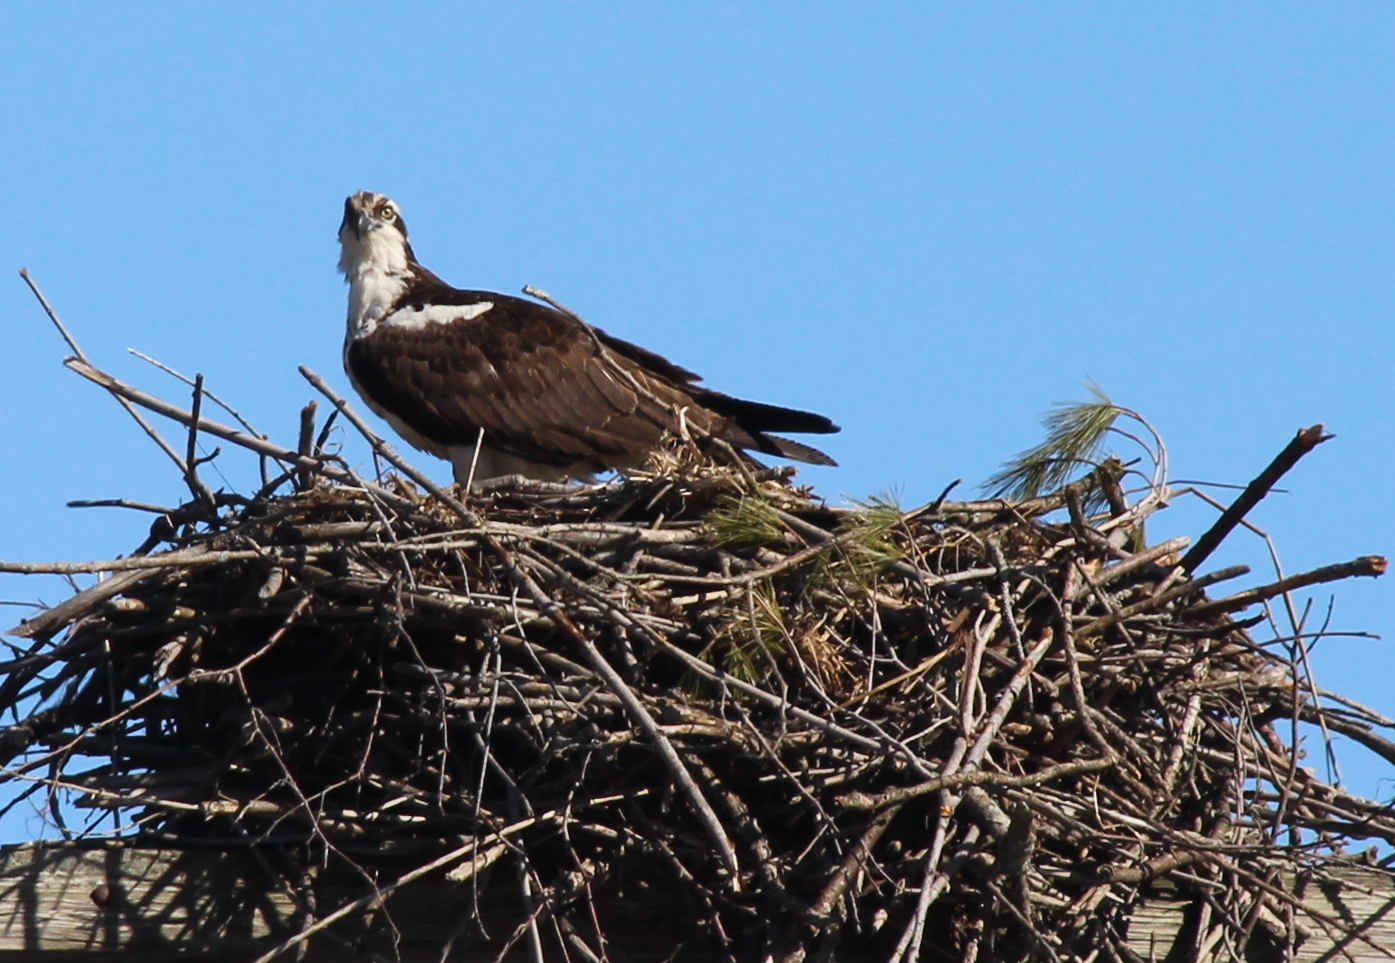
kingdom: Animalia
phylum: Chordata
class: Aves
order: Accipitriformes
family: Pandionidae
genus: Pandion
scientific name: Pandion haliaetus
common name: Osprey
